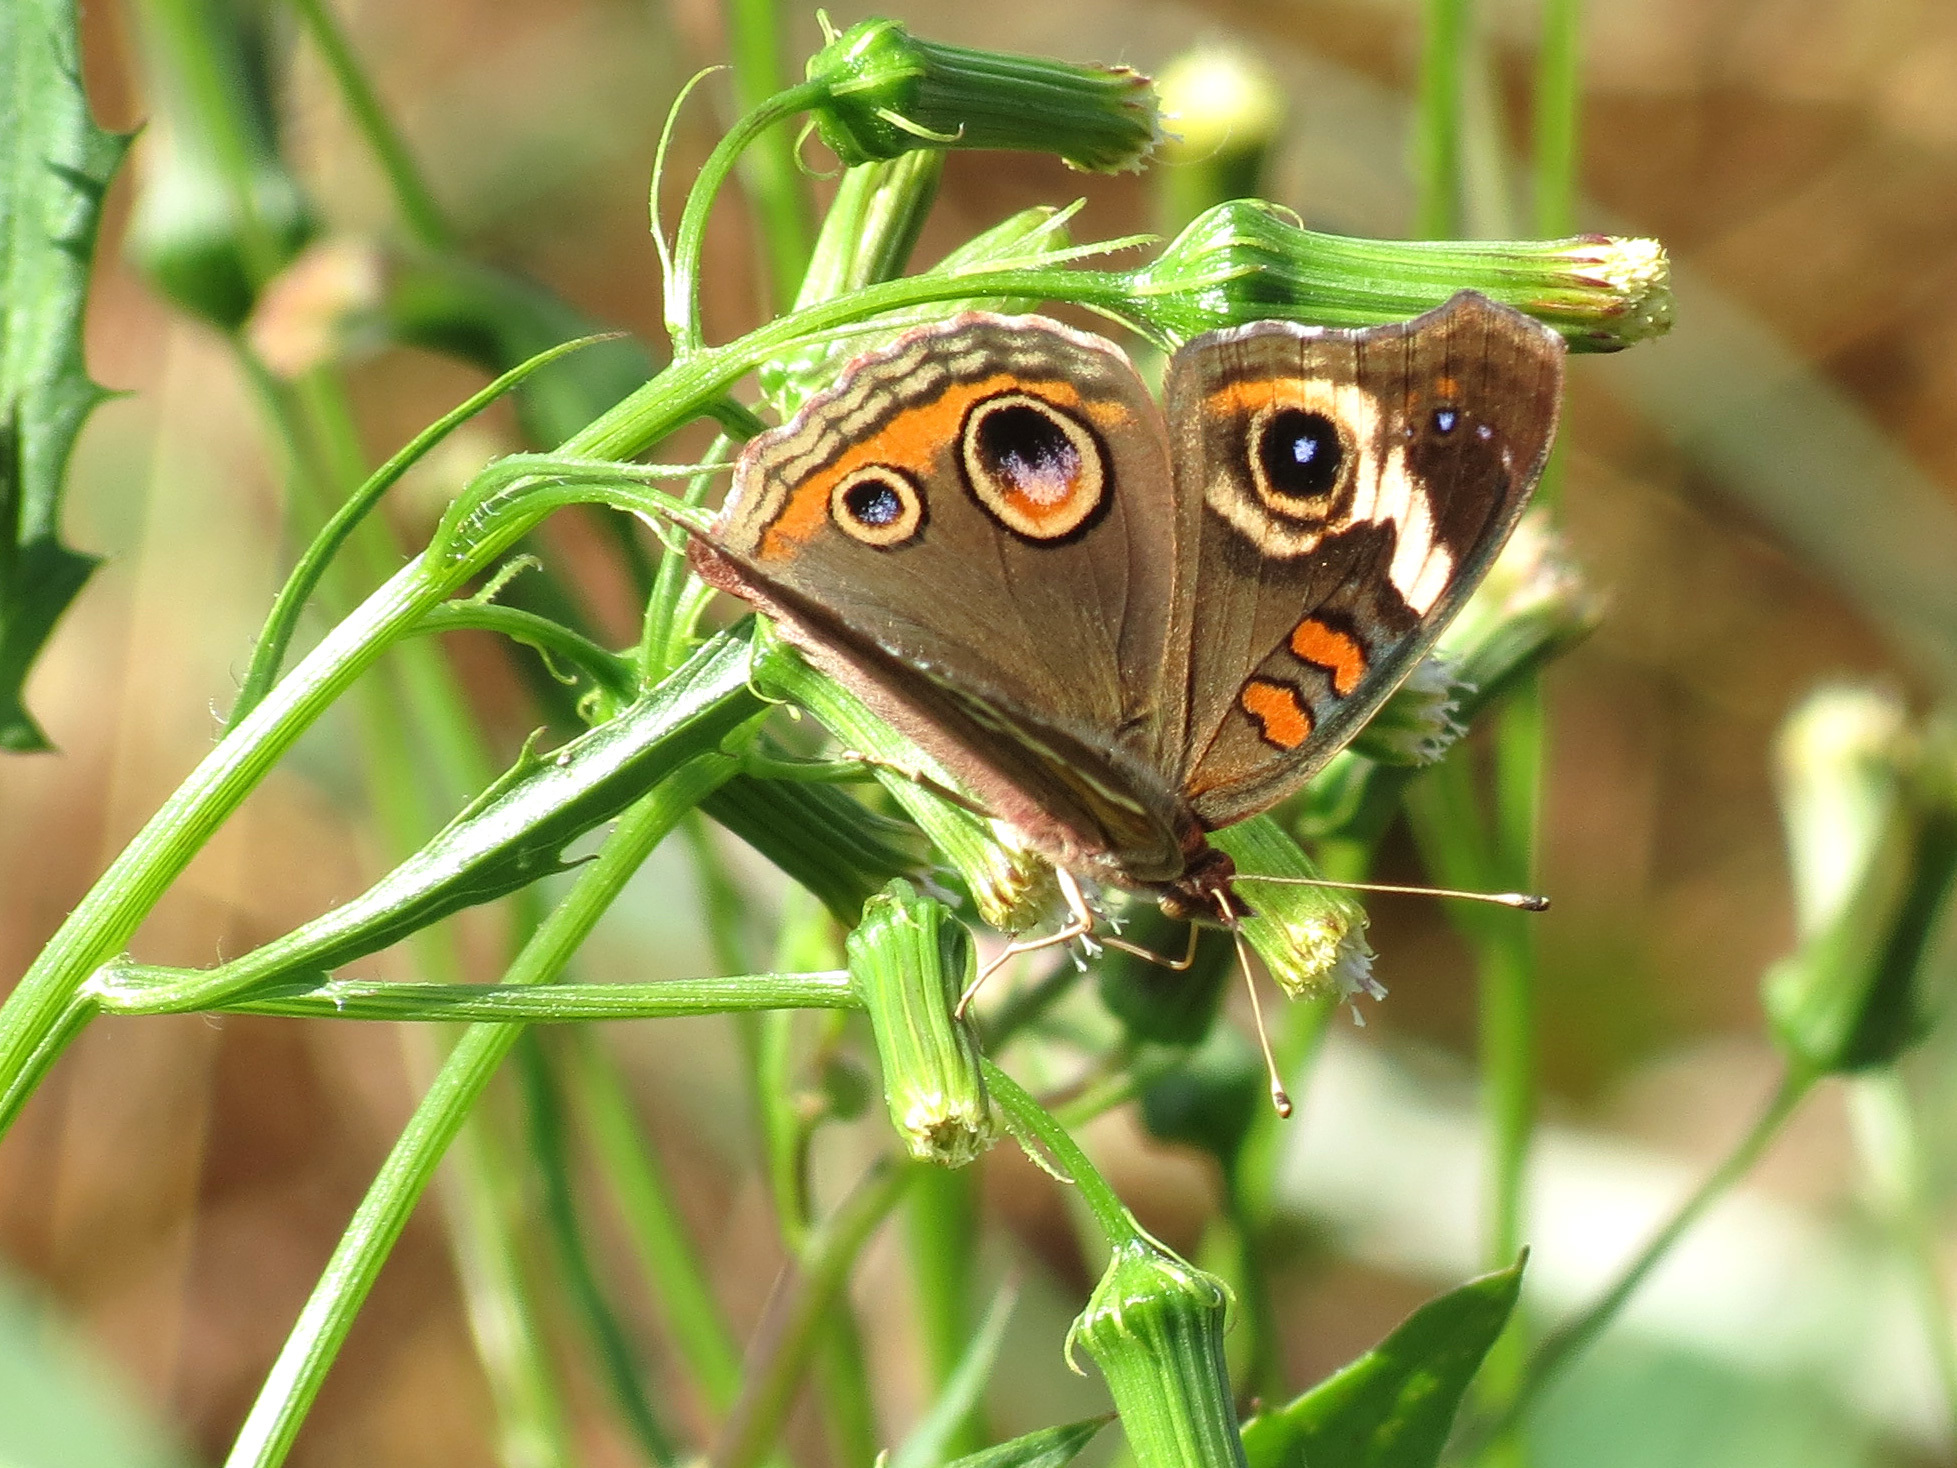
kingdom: Animalia
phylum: Arthropoda
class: Insecta
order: Lepidoptera
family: Nymphalidae
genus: Junonia
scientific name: Junonia coenia
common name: Common buckeye
